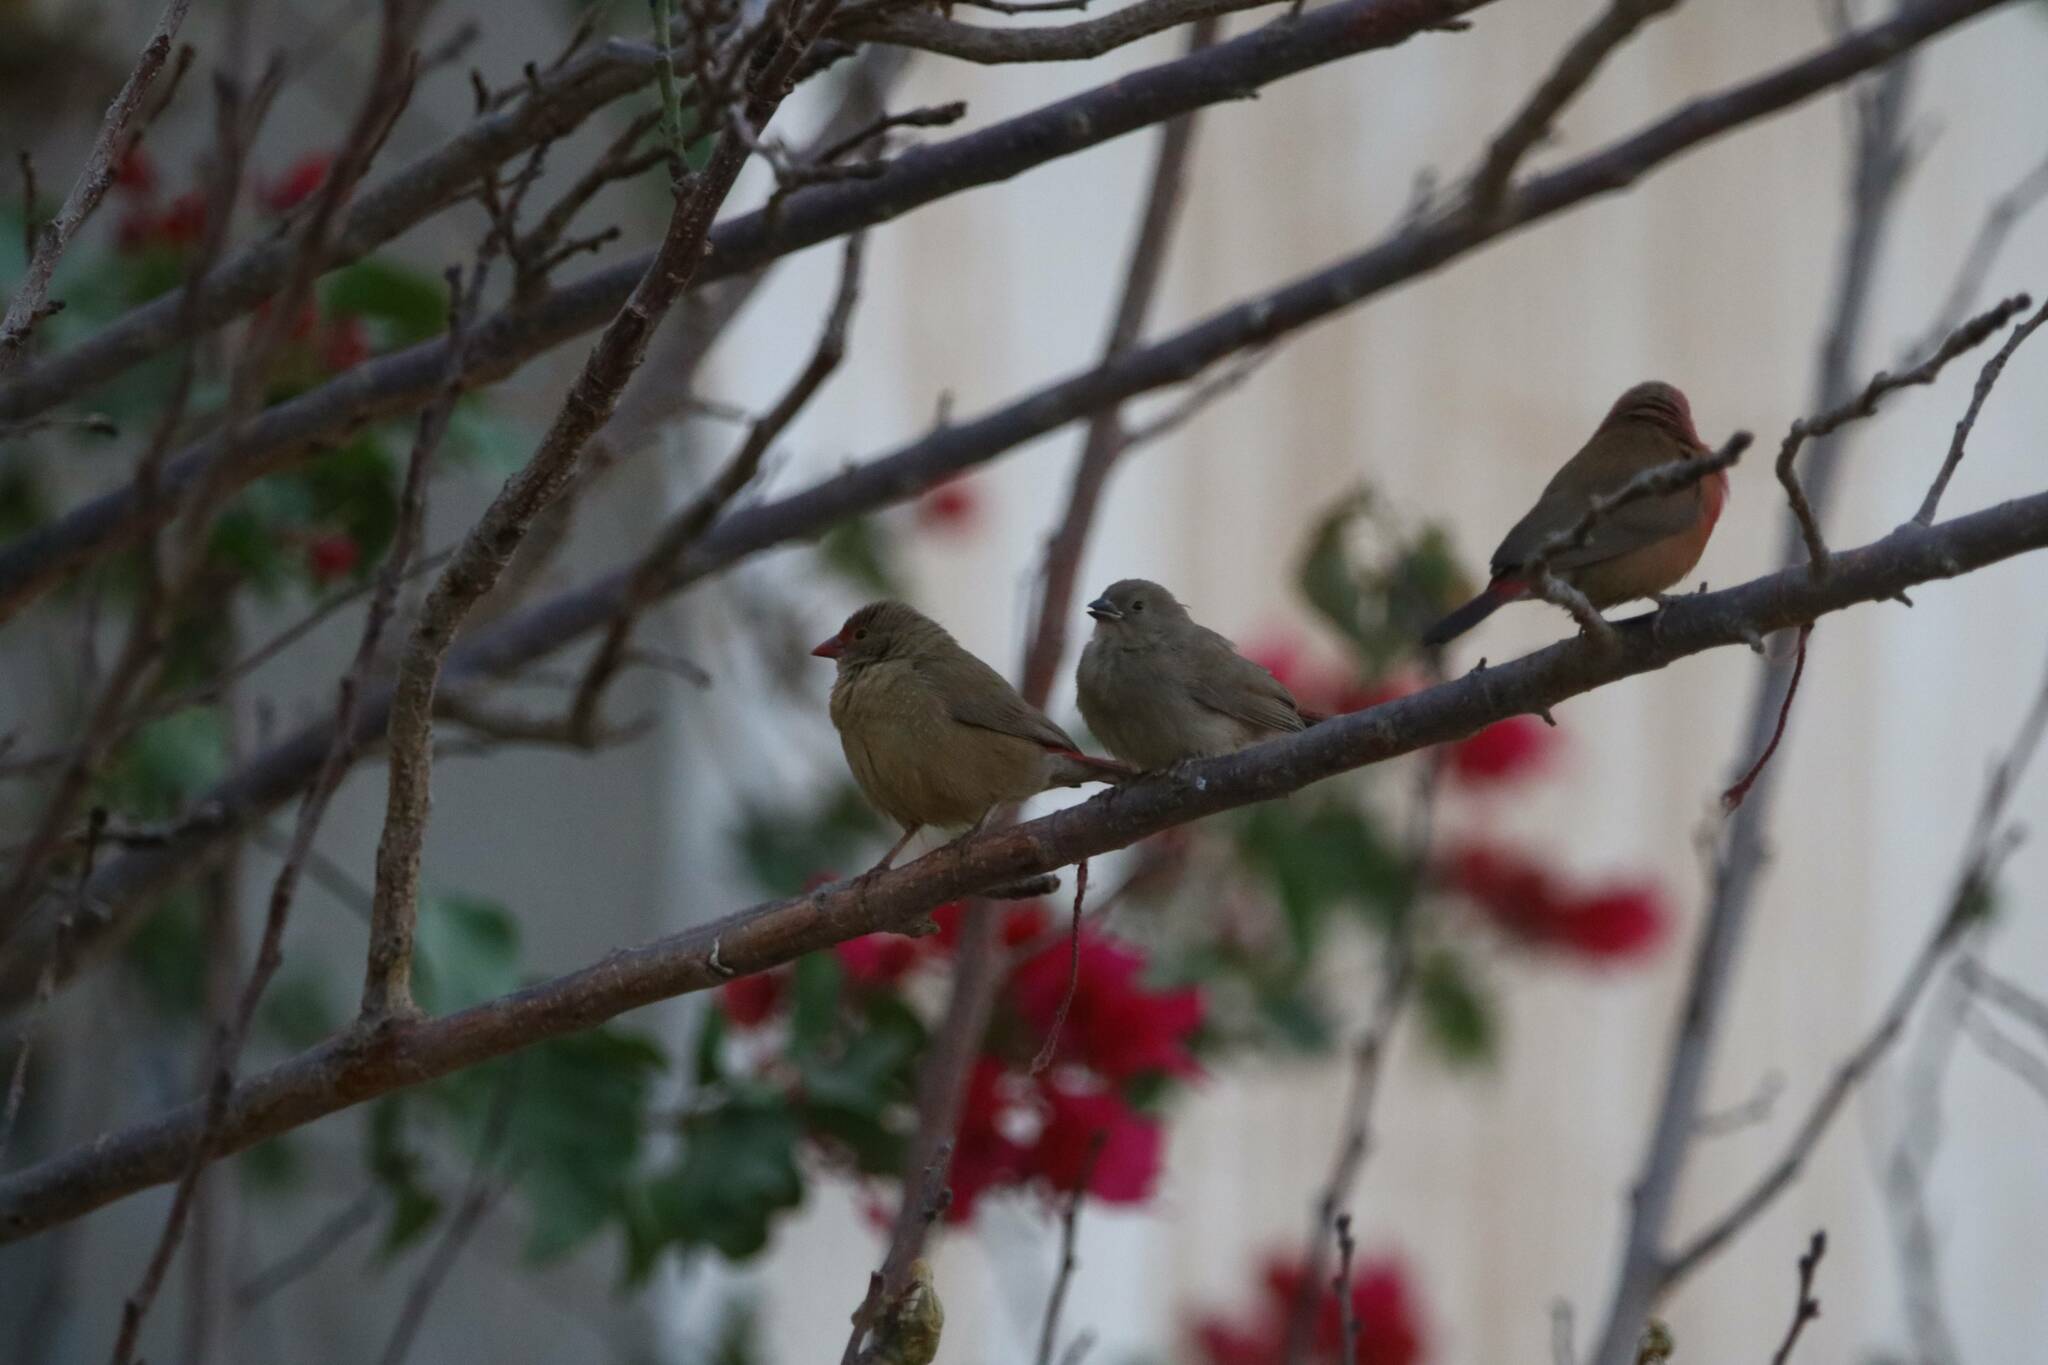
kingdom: Animalia
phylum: Chordata
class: Aves
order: Passeriformes
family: Estrildidae
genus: Lagonosticta
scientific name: Lagonosticta senegala
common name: Red-billed firefinch
